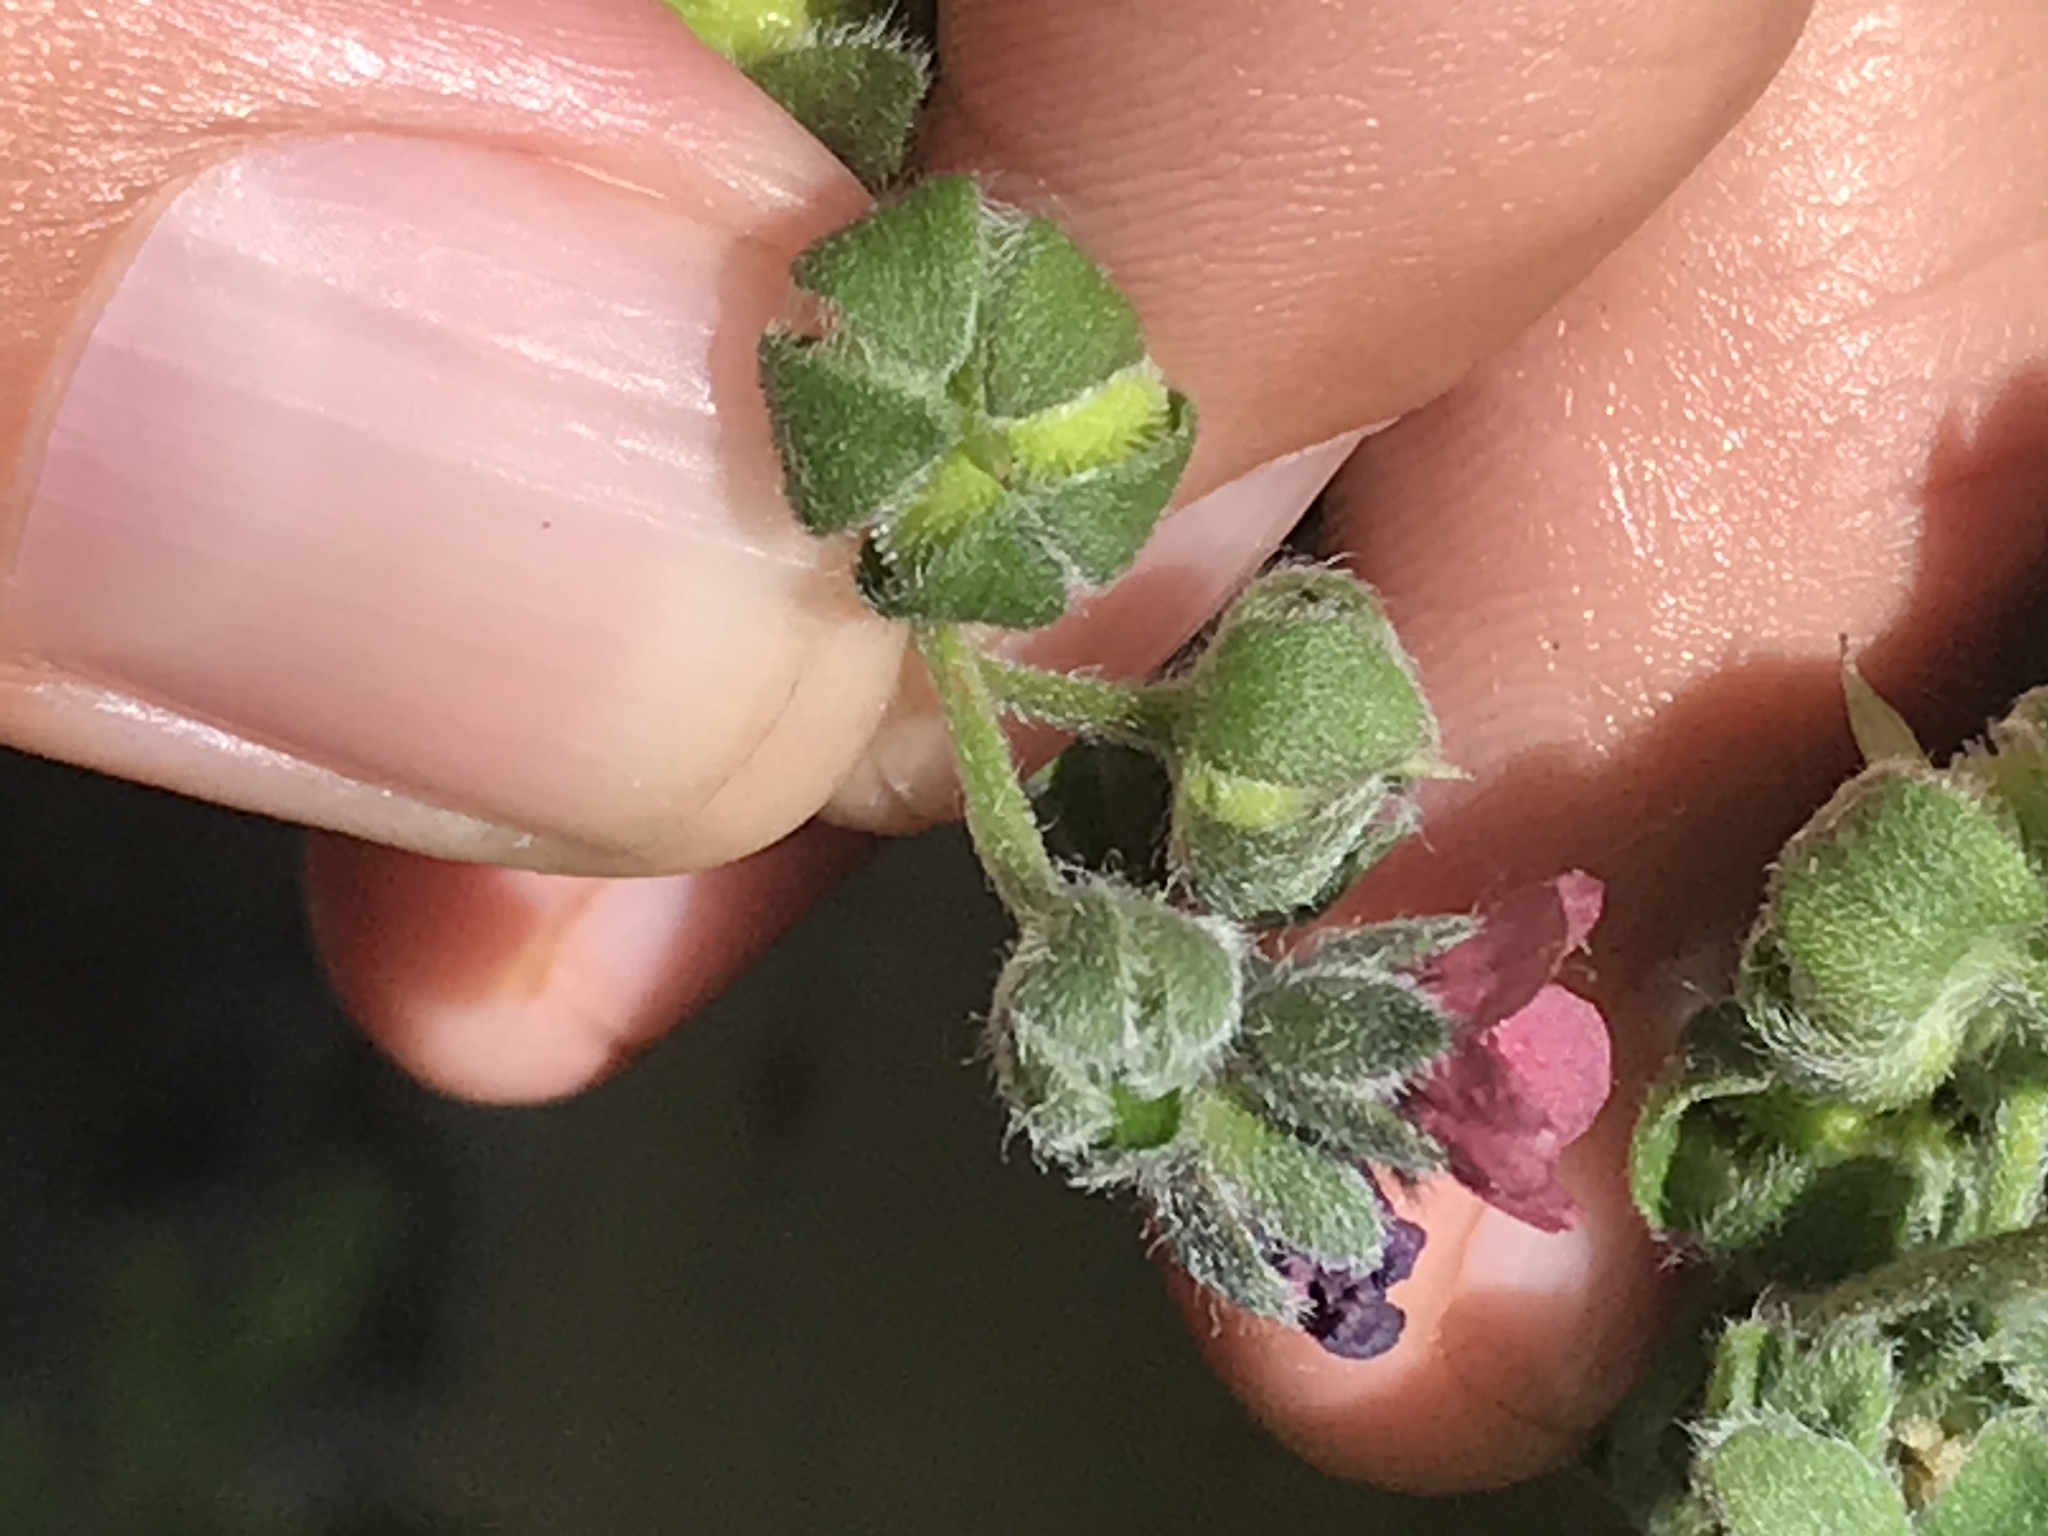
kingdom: Plantae
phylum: Tracheophyta
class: Magnoliopsida
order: Boraginales
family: Boraginaceae
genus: Cynoglossum
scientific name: Cynoglossum officinale
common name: Hound's-tongue
